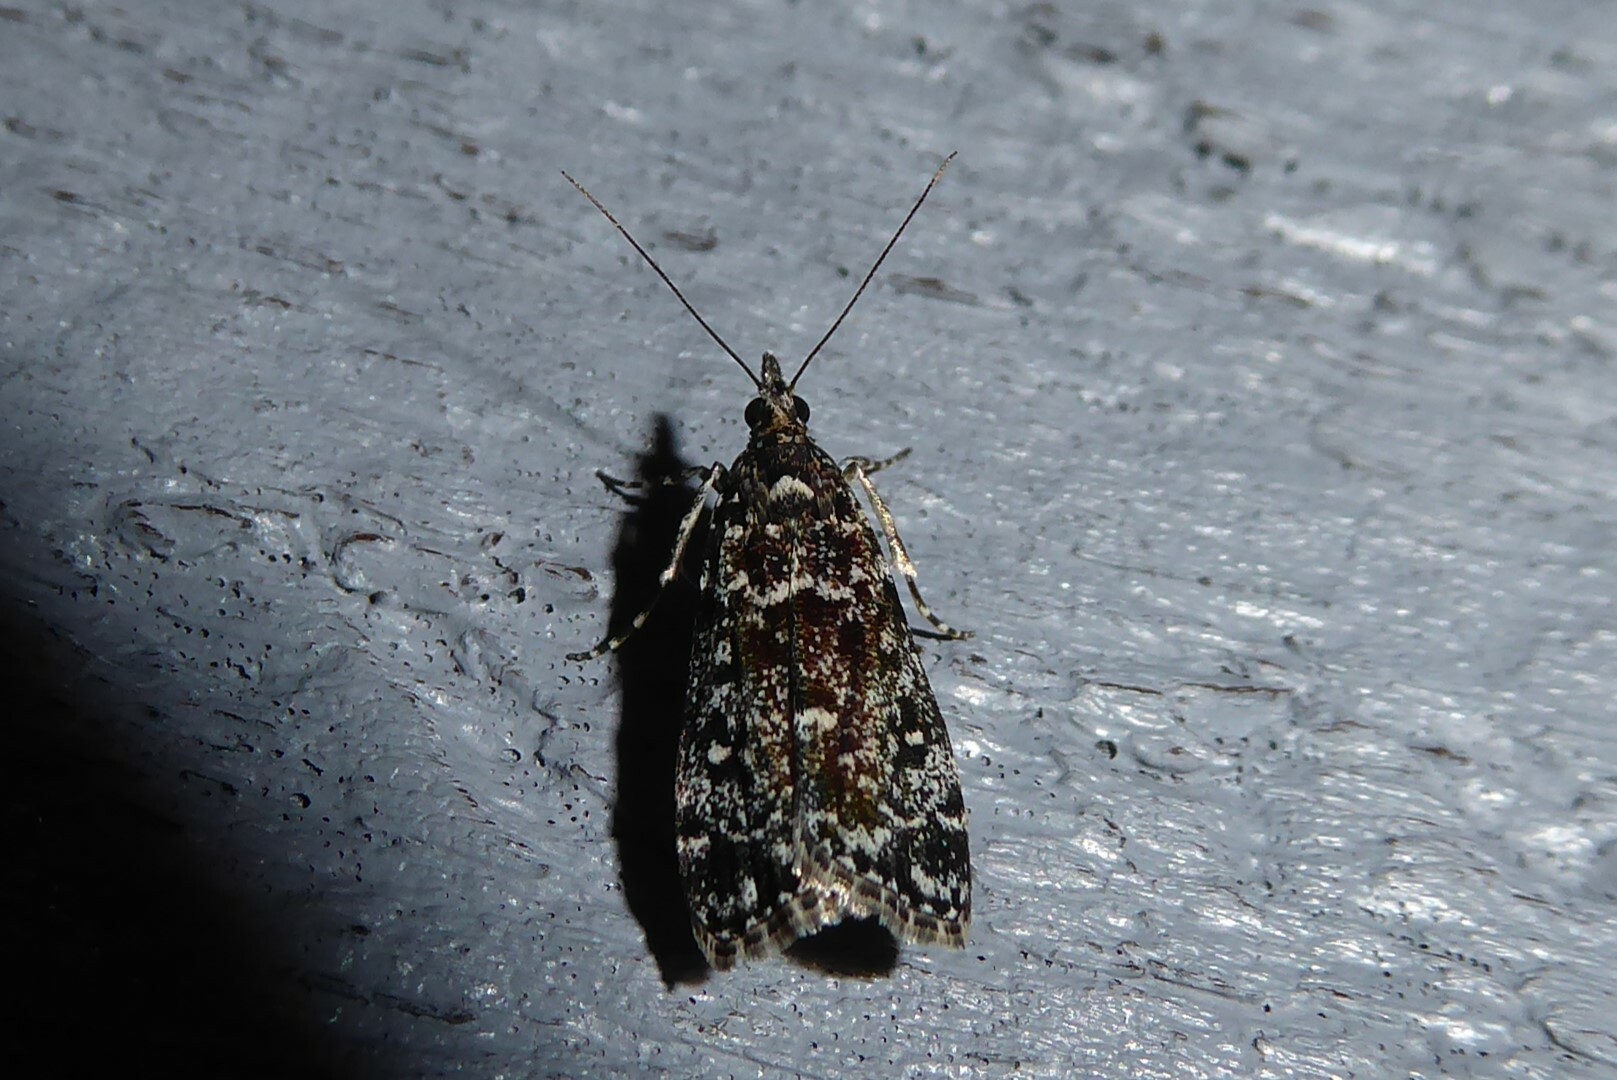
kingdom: Animalia
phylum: Arthropoda
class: Insecta
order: Lepidoptera
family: Crambidae
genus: Eudonia
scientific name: Eudonia philerga
